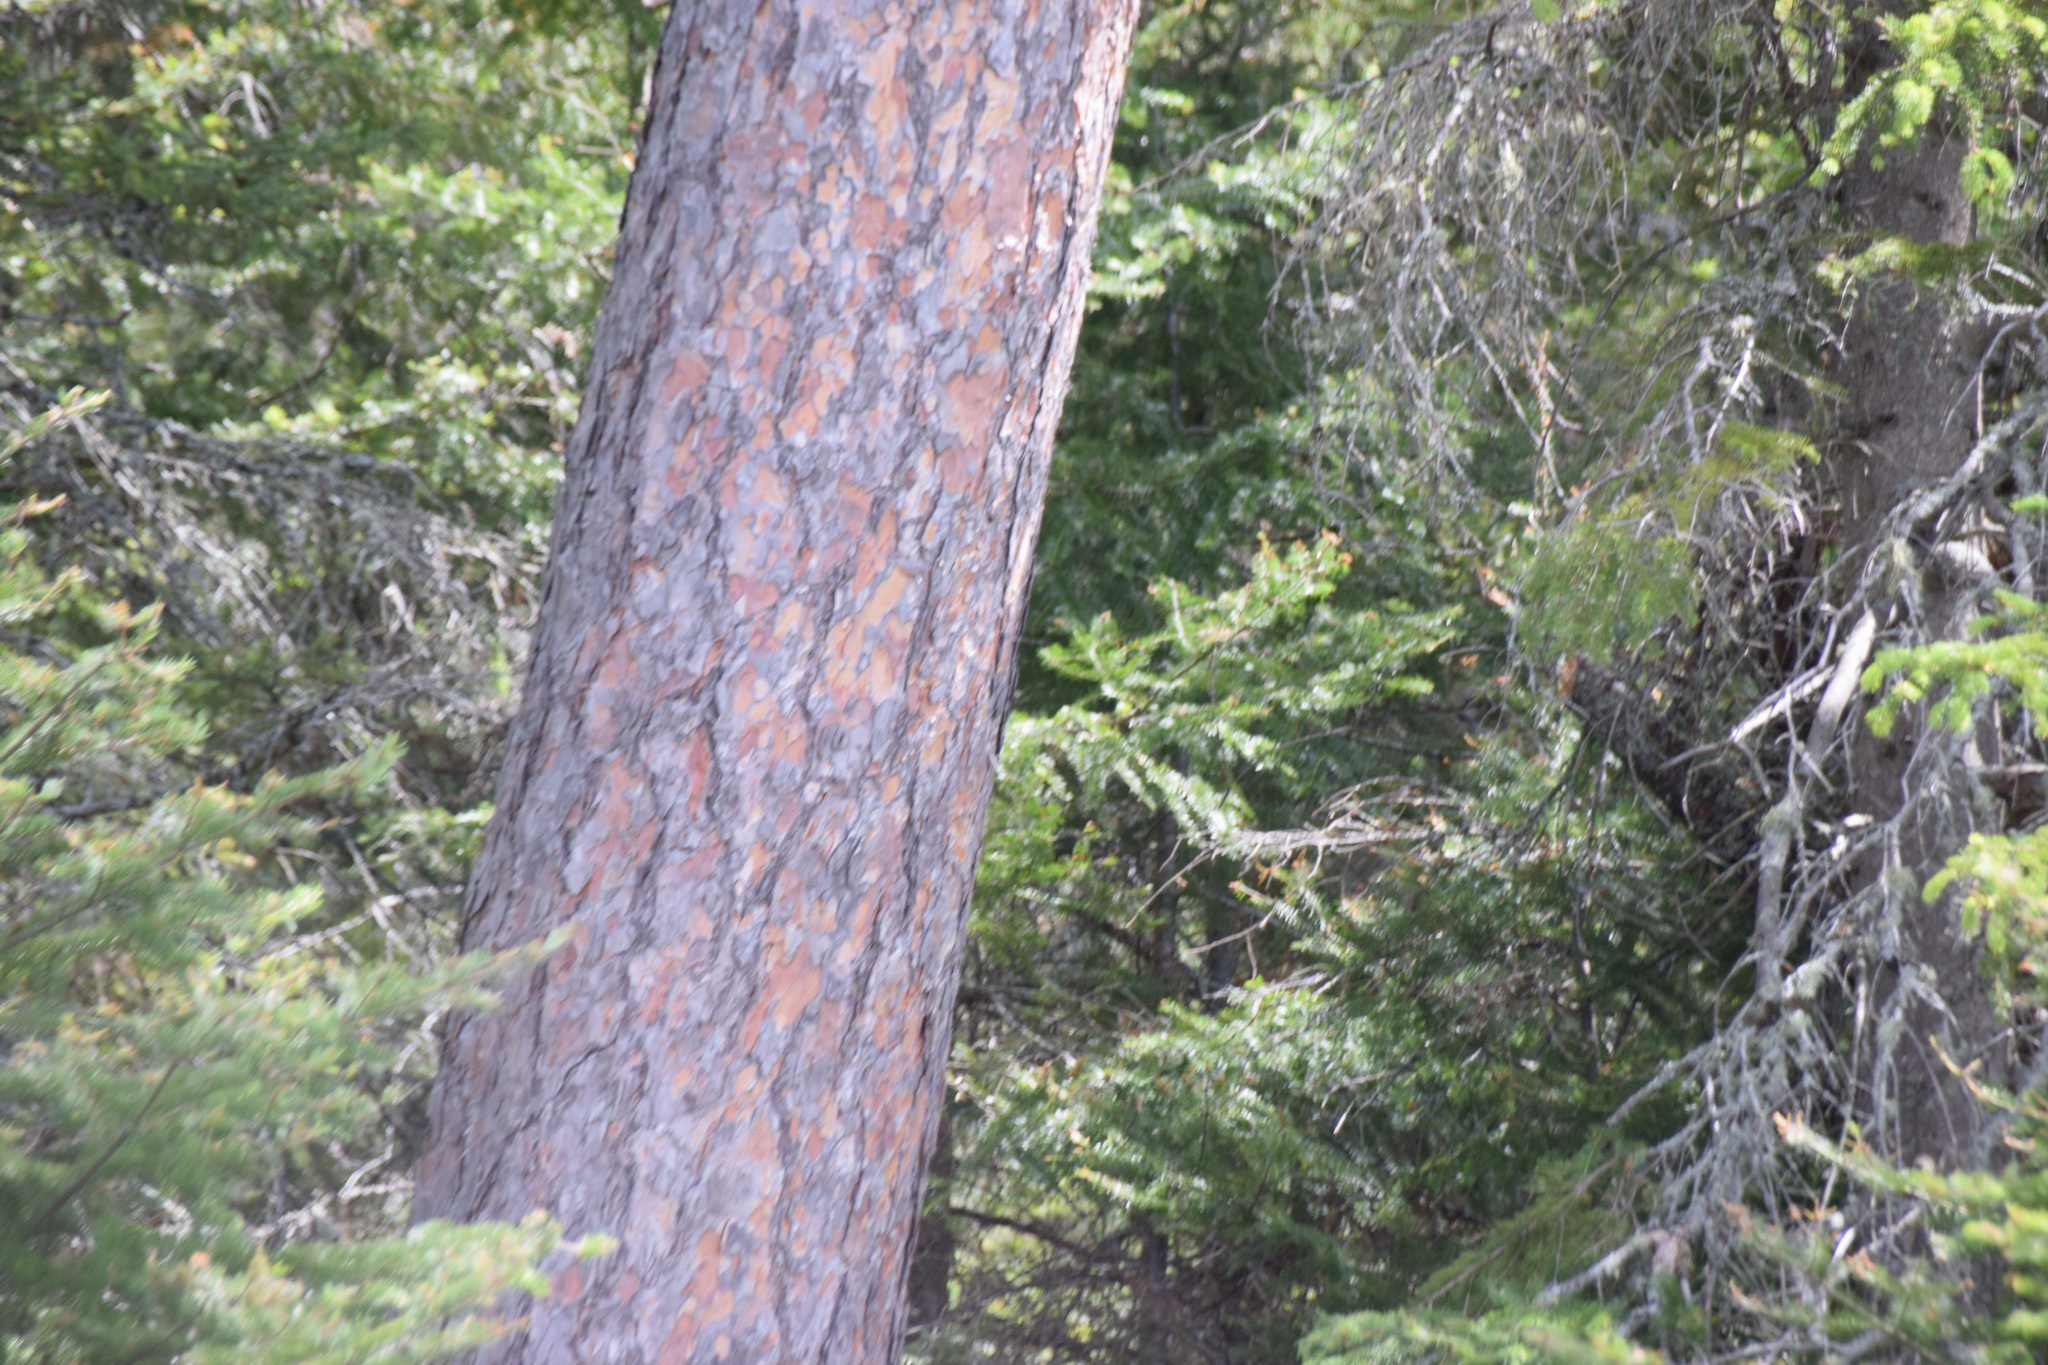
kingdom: Plantae
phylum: Tracheophyta
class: Pinopsida
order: Pinales
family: Pinaceae
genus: Pinus
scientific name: Pinus resinosa
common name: Norway pine
